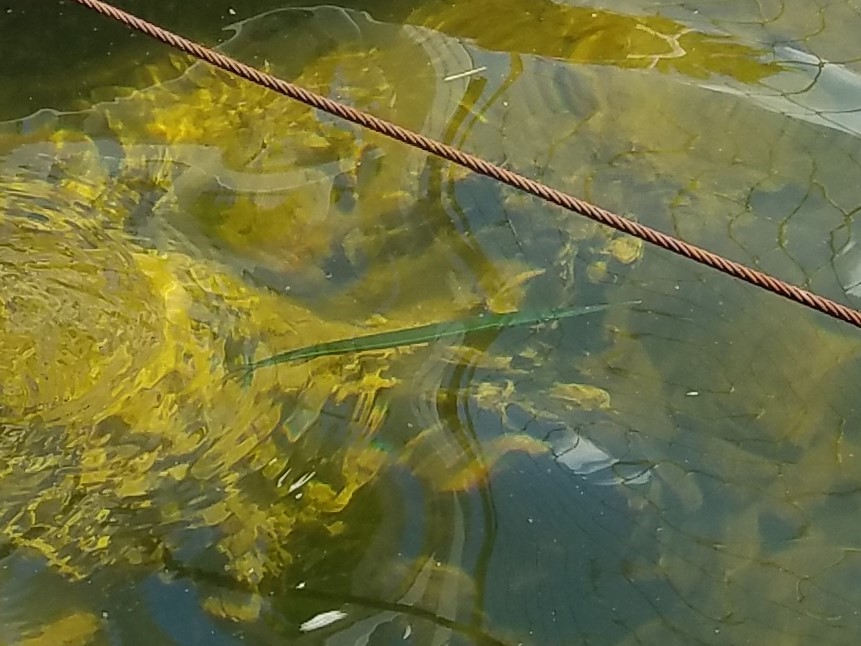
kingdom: Animalia
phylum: Chordata
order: Beloniformes
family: Belonidae
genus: Strongylura
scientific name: Strongylura timucu
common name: Timucu
